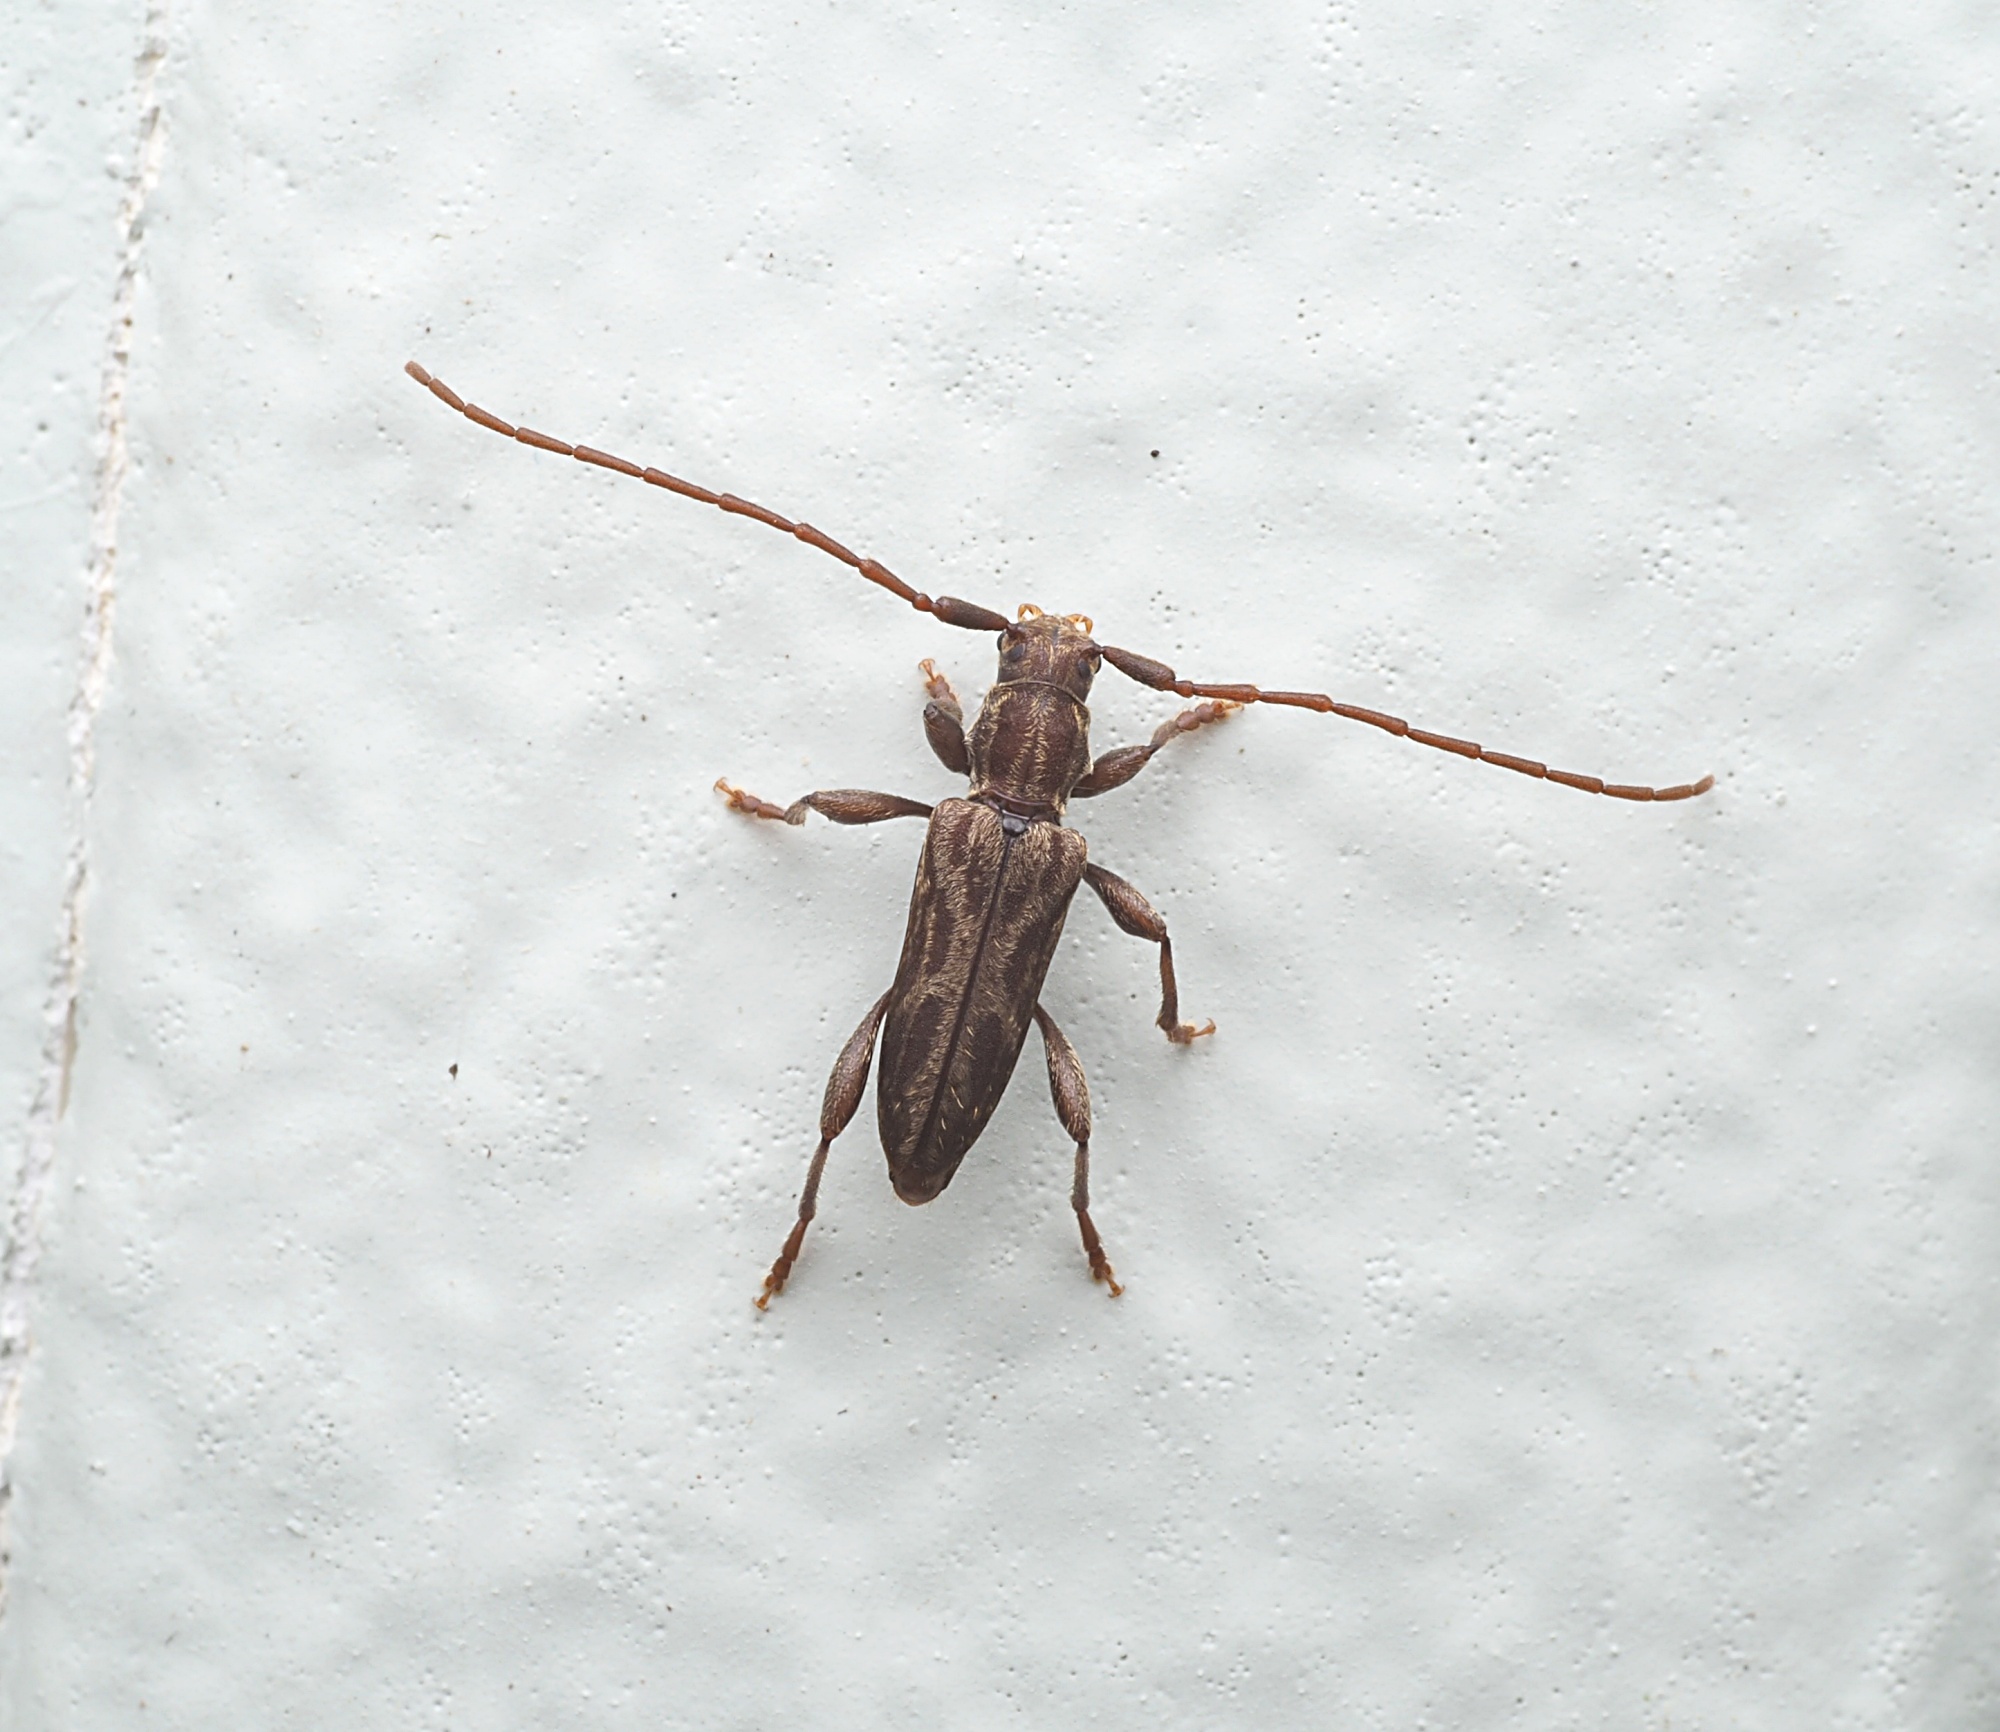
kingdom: Animalia
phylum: Arthropoda
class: Insecta
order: Coleoptera
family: Cerambycidae
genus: Eburilla
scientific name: Eburilla sericea
